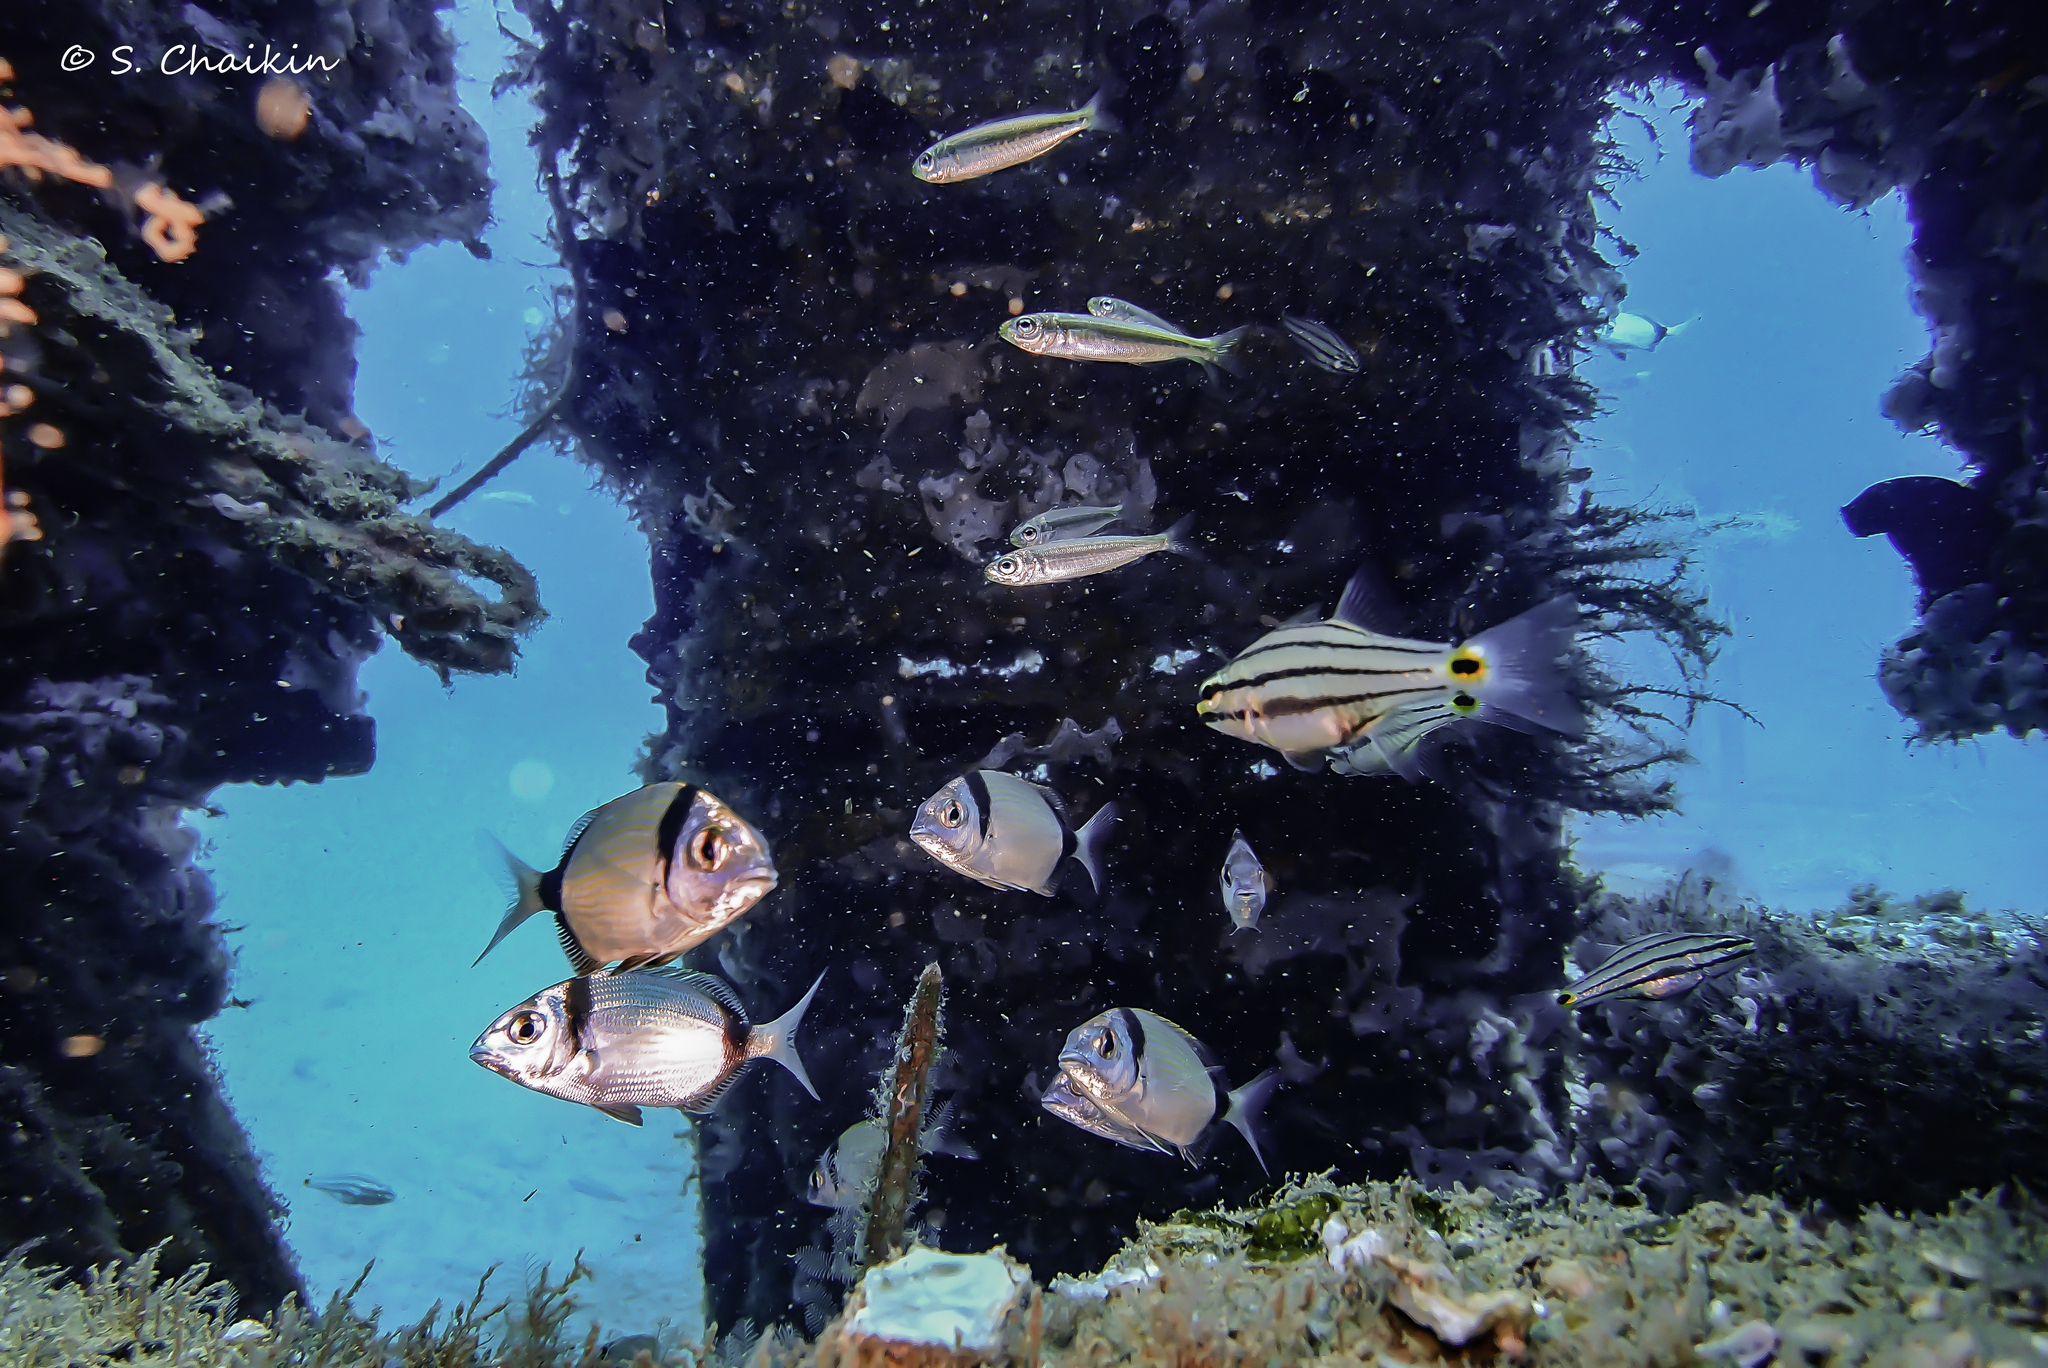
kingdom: Animalia
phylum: Chordata
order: Perciformes
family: Sparidae
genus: Boops
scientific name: Boops boops
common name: Bogue
